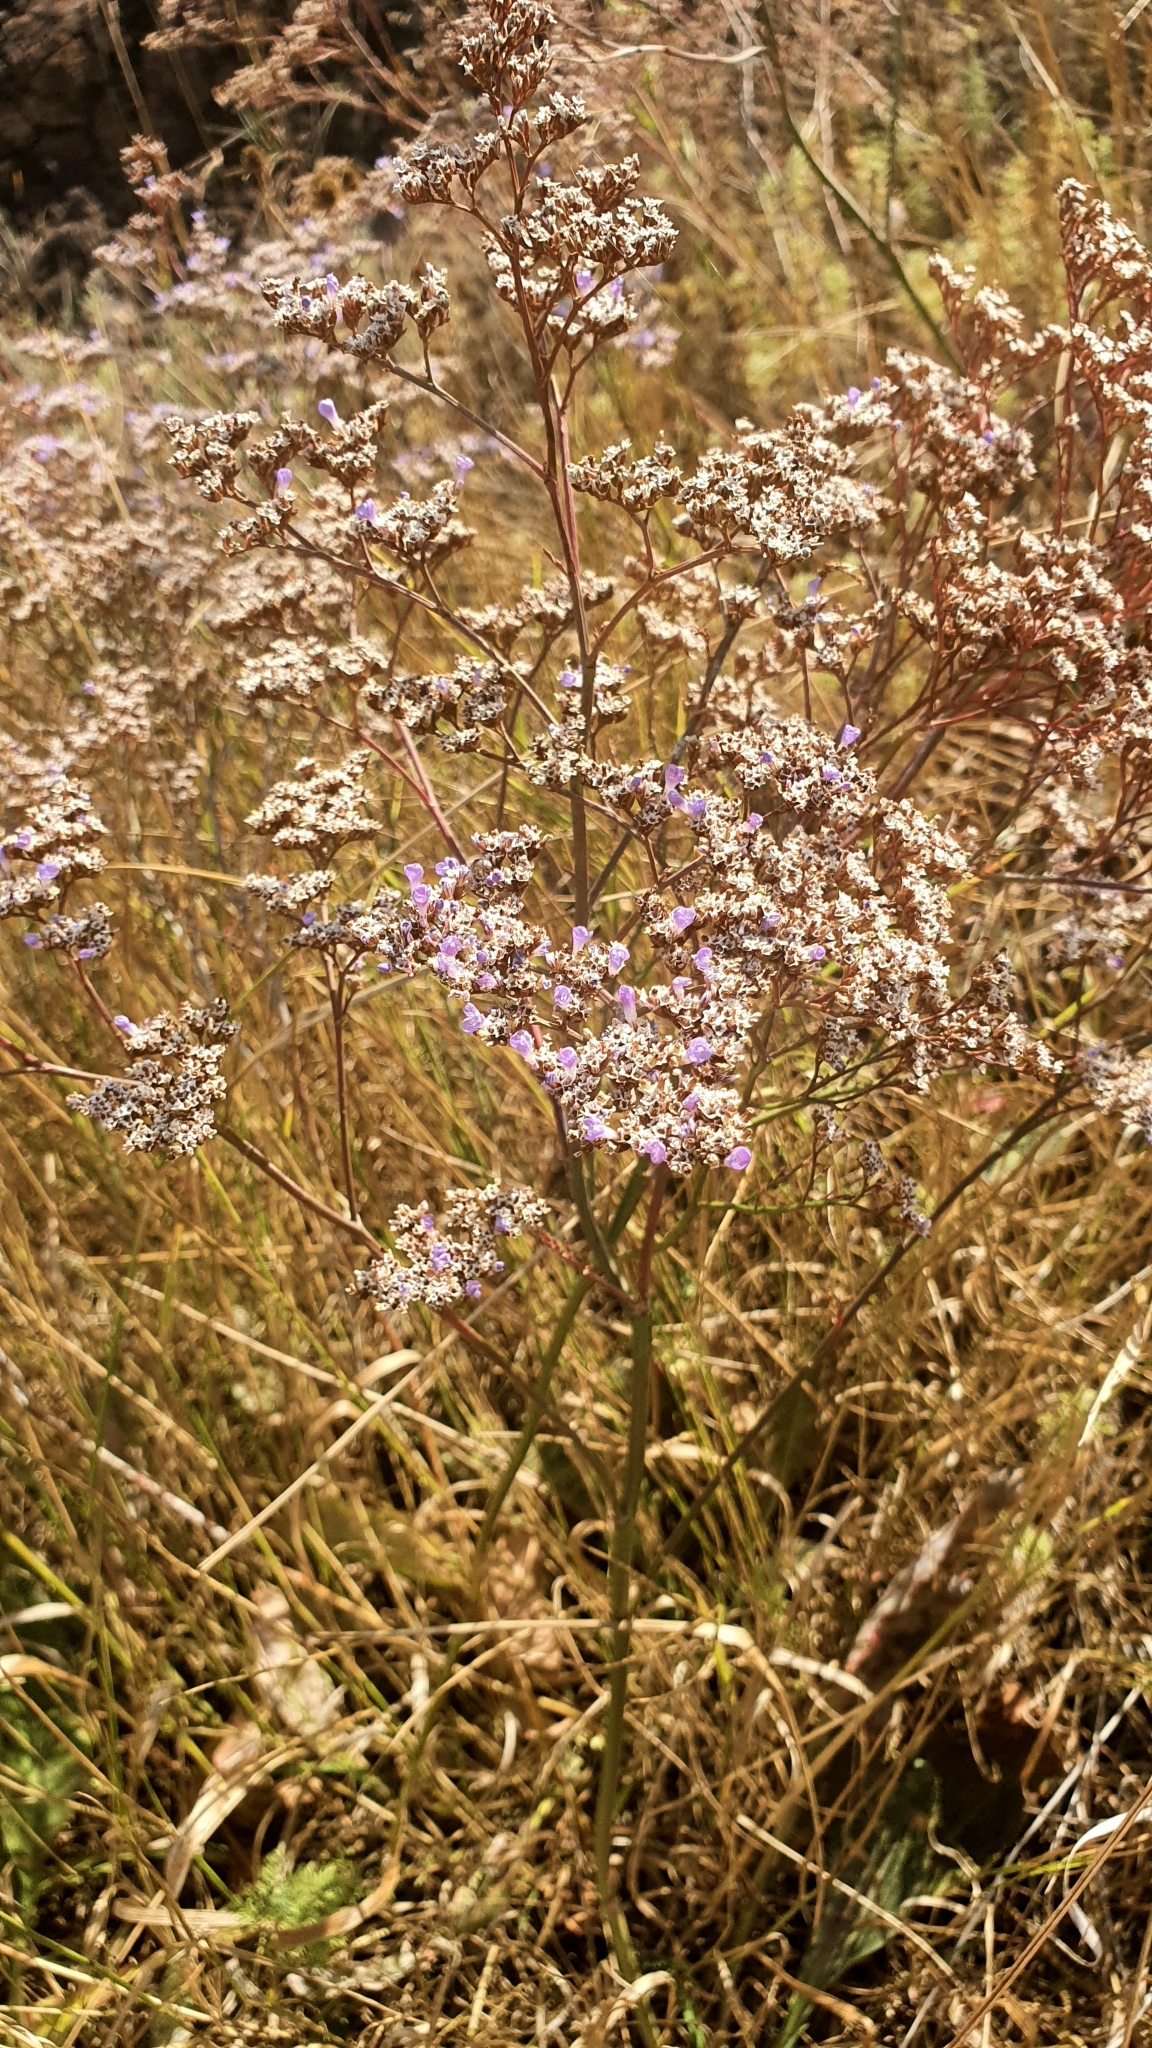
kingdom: Plantae
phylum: Tracheophyta
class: Magnoliopsida
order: Caryophyllales
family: Plumbaginaceae
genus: Limonium
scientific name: Limonium gmelini
